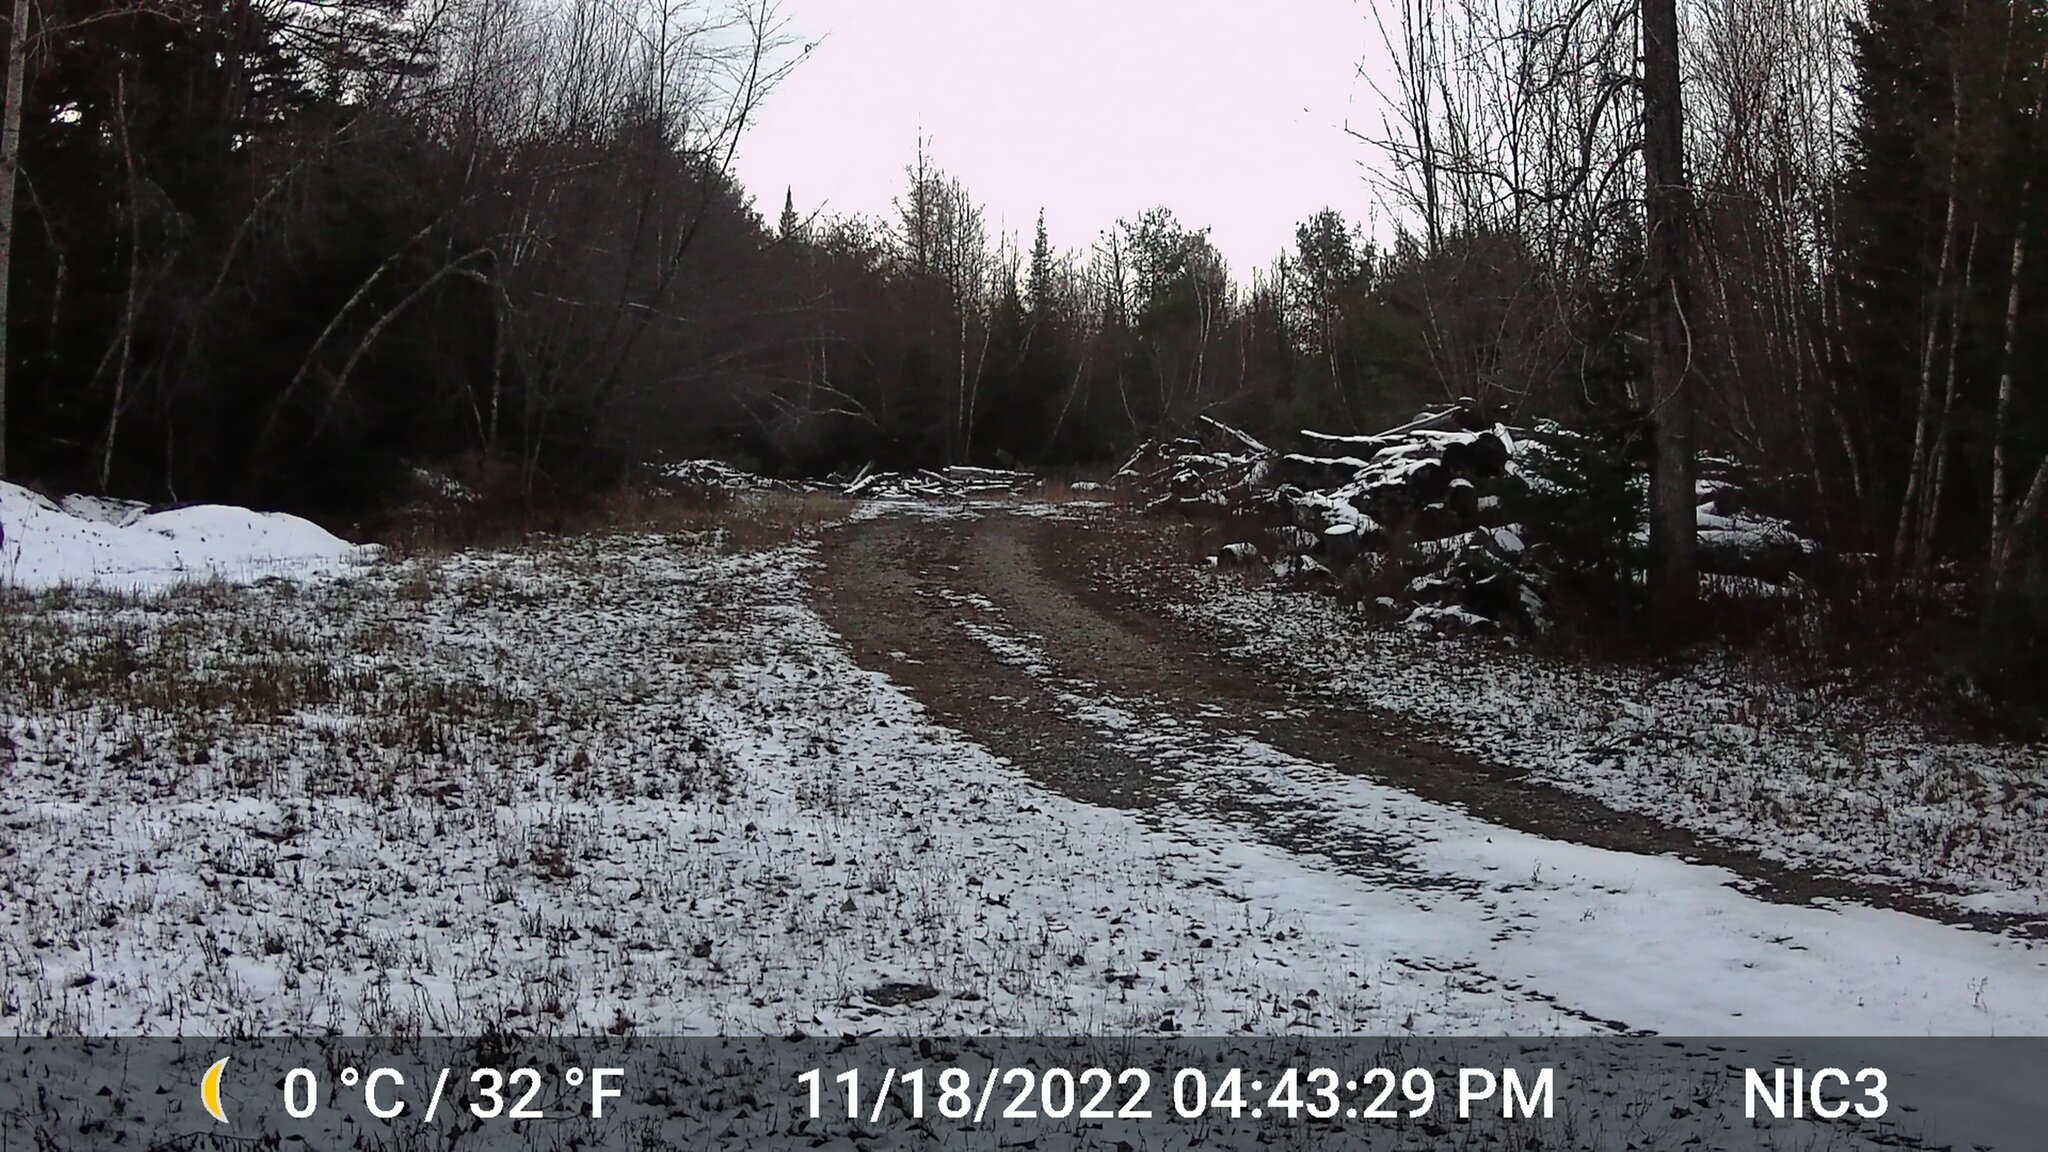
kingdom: Animalia
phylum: Chordata
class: Mammalia
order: Artiodactyla
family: Cervidae
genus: Odocoileus
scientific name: Odocoileus virginianus
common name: White-tailed deer
